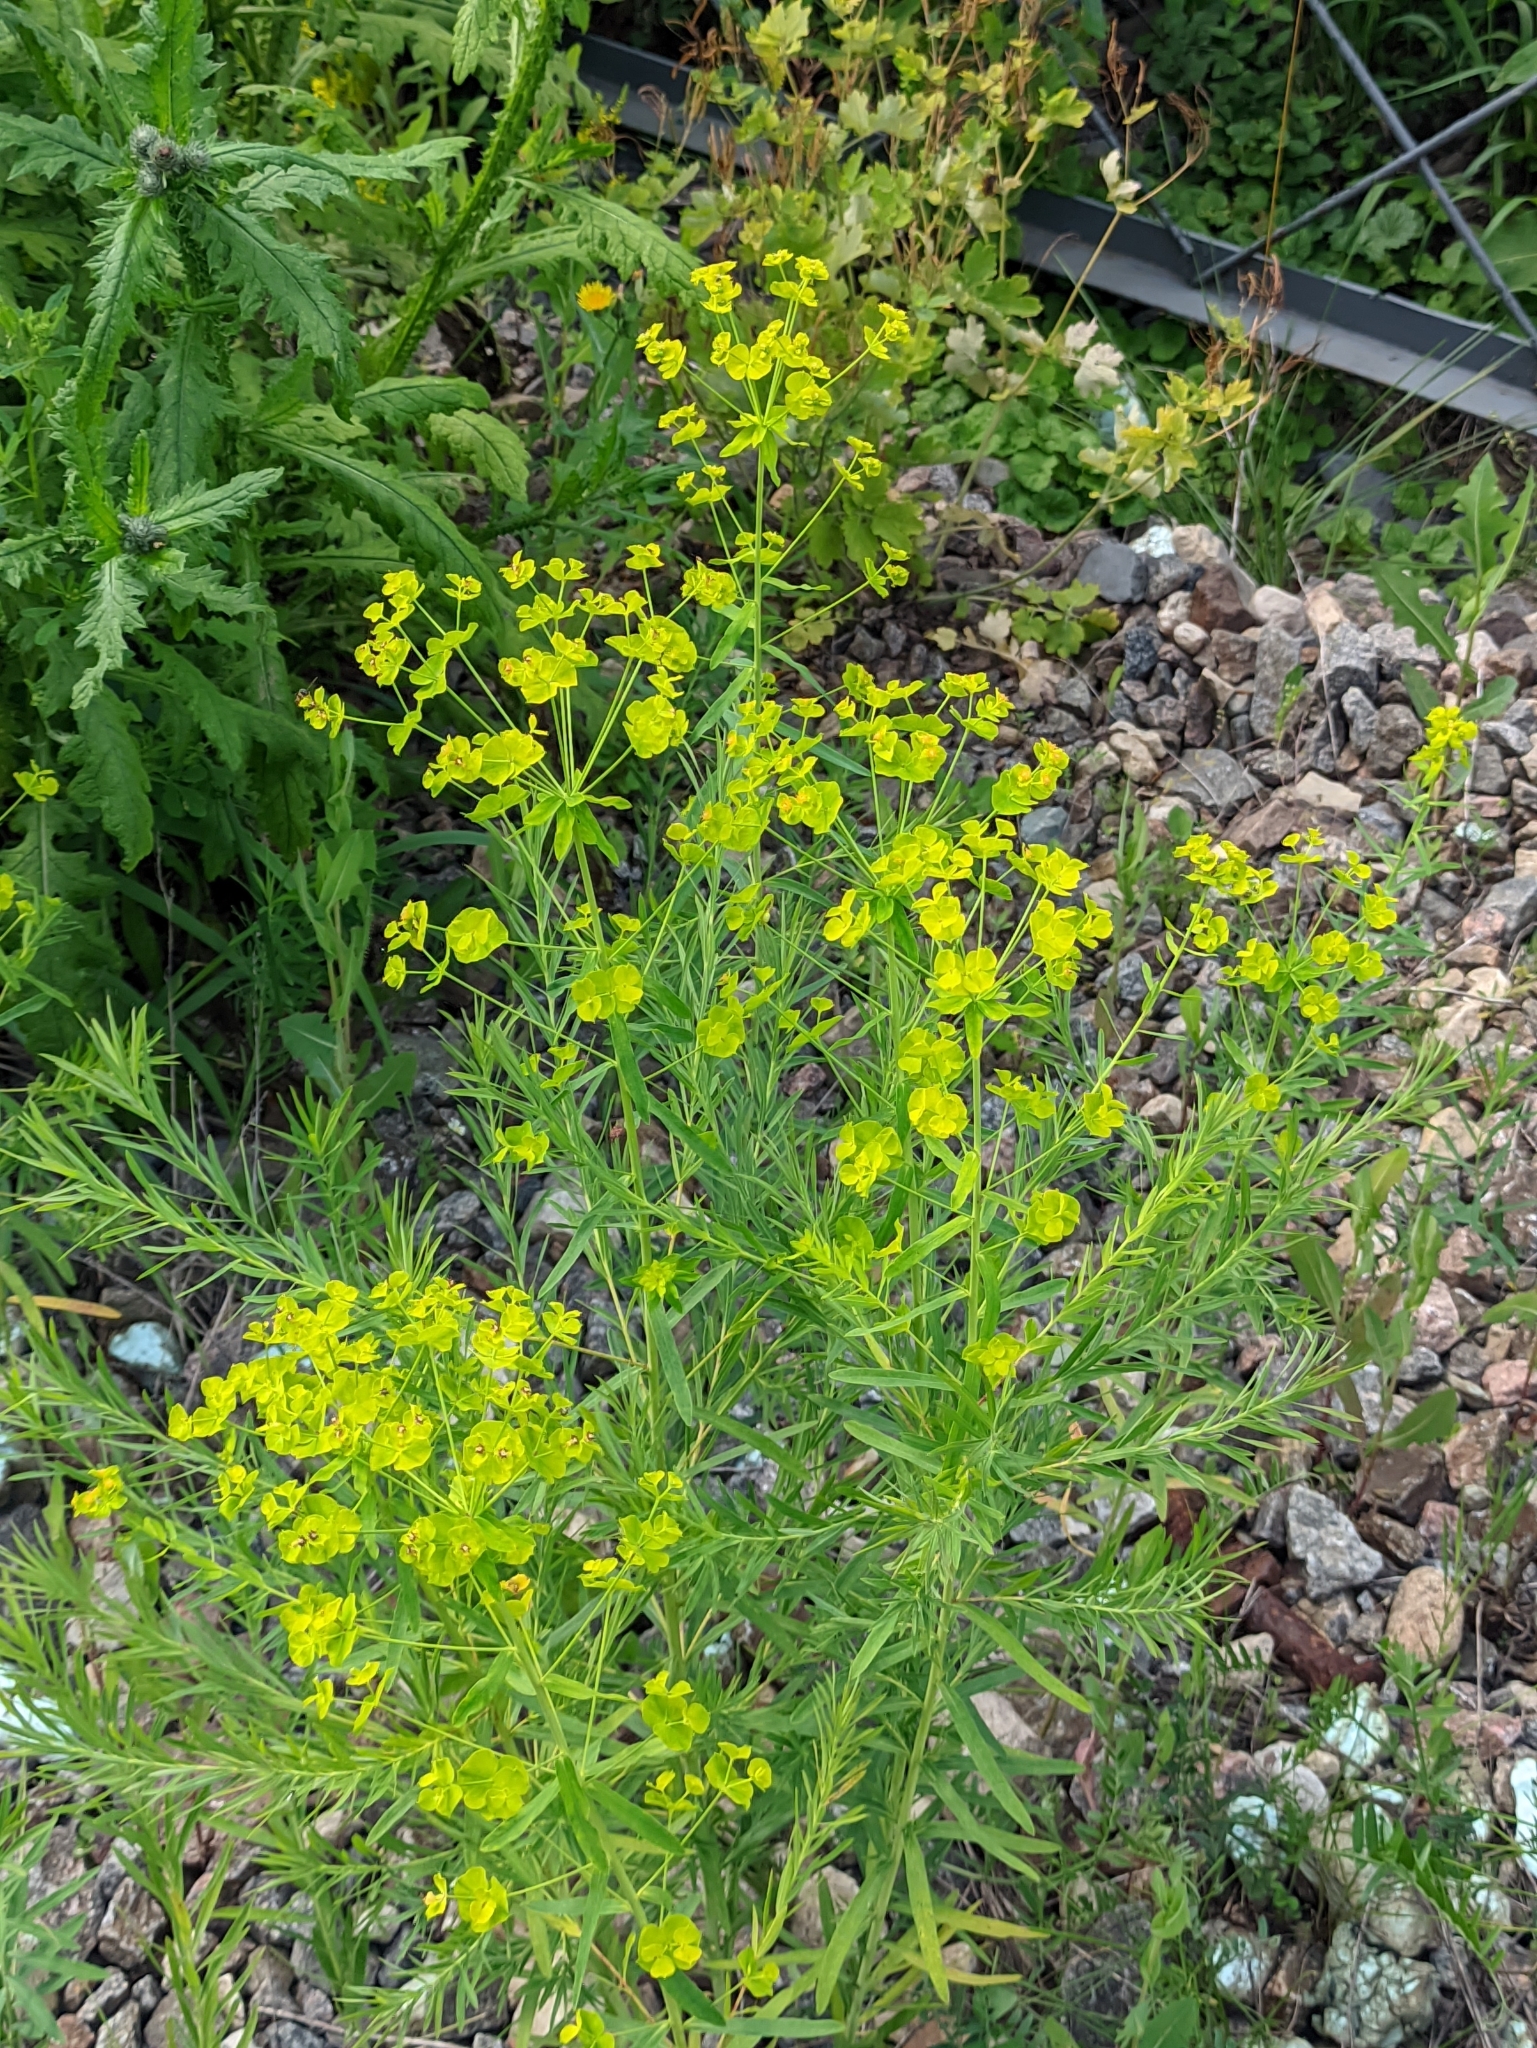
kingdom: Plantae
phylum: Tracheophyta
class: Magnoliopsida
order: Malpighiales
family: Euphorbiaceae
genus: Euphorbia
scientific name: Euphorbia virgata
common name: Leafy spurge
